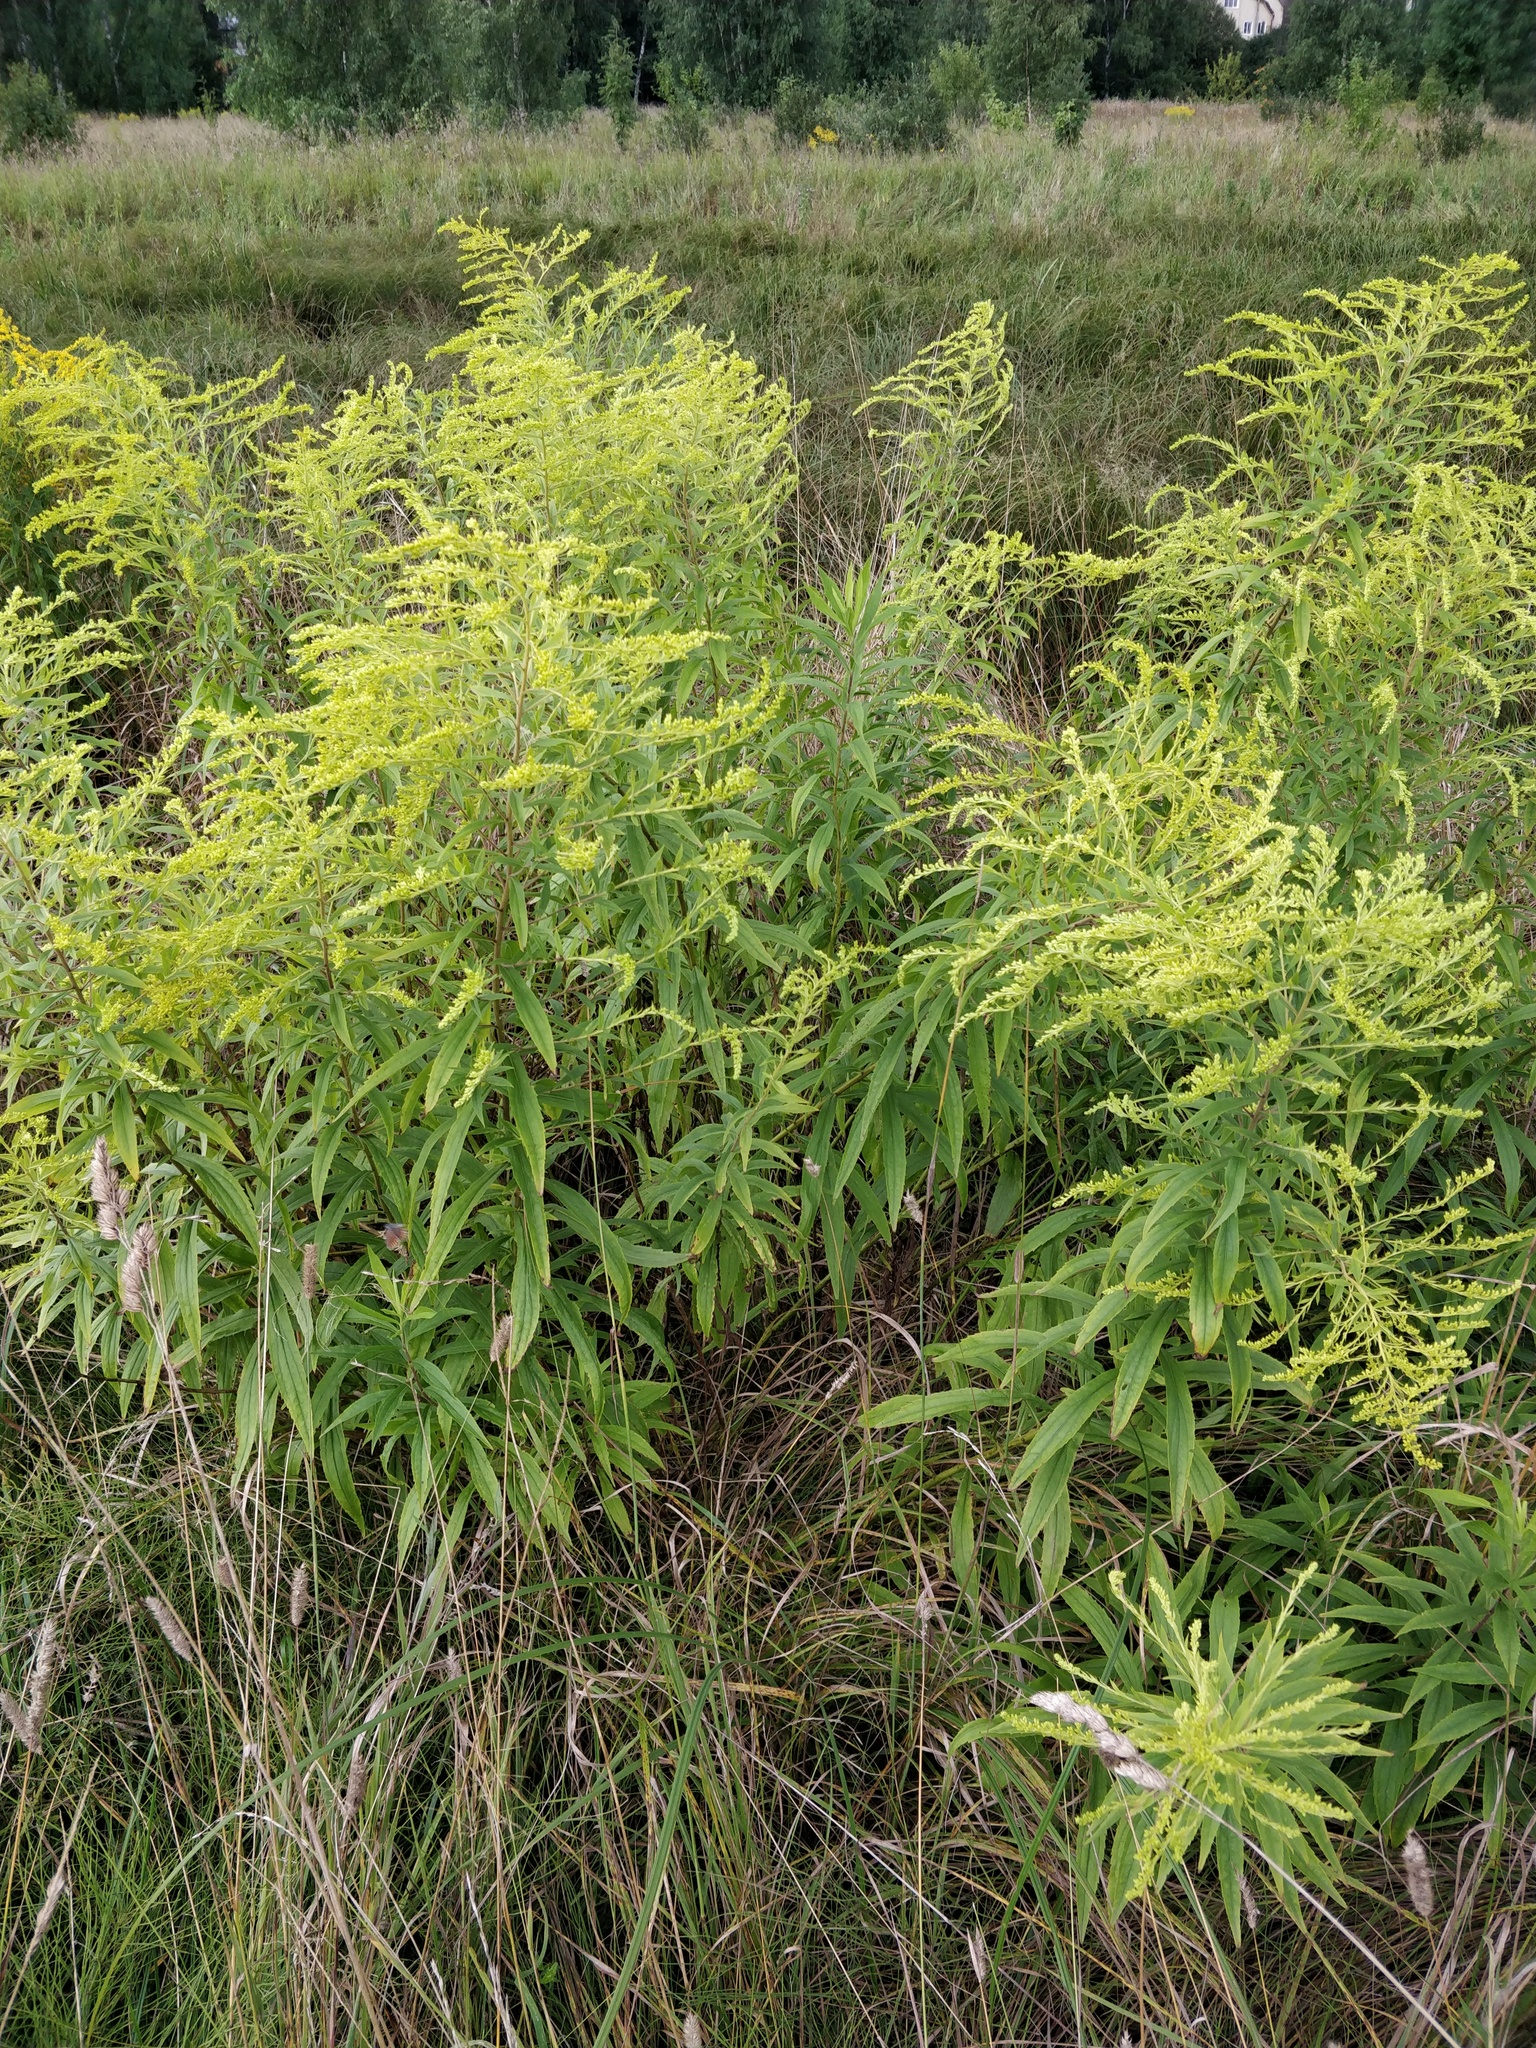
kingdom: Plantae
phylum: Tracheophyta
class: Magnoliopsida
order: Asterales
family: Asteraceae
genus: Solidago
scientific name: Solidago canadensis
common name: Canada goldenrod
